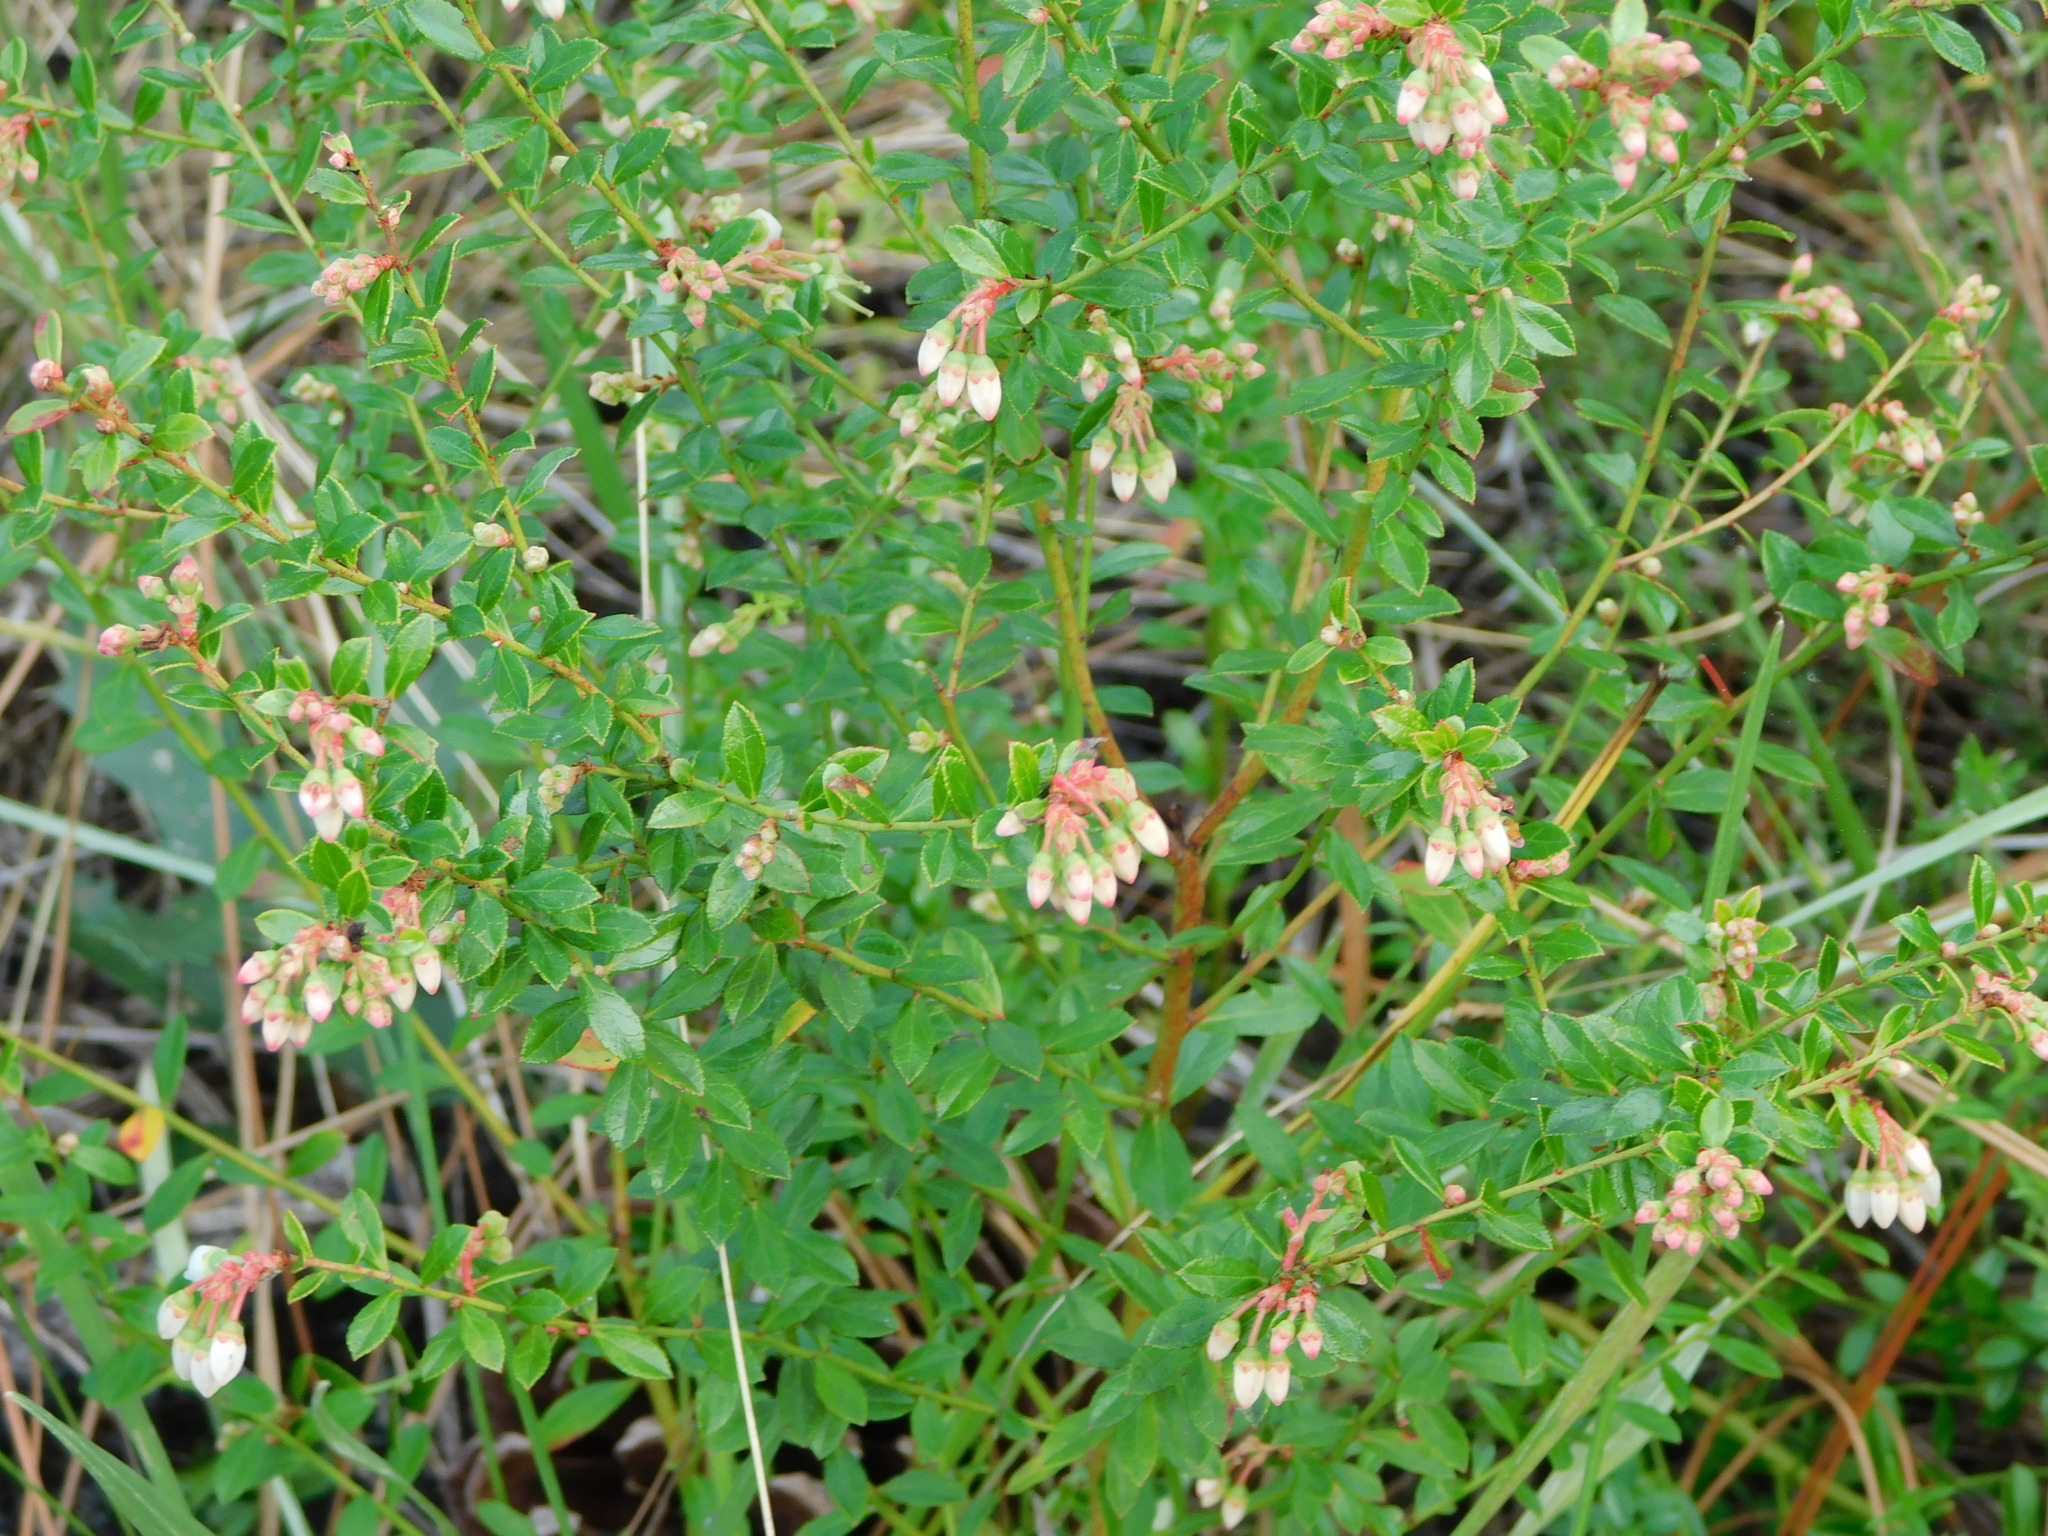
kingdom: Plantae
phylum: Tracheophyta
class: Magnoliopsida
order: Ericales
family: Ericaceae
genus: Vaccinium
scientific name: Vaccinium myrsinites
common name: Evergreen blueberry
